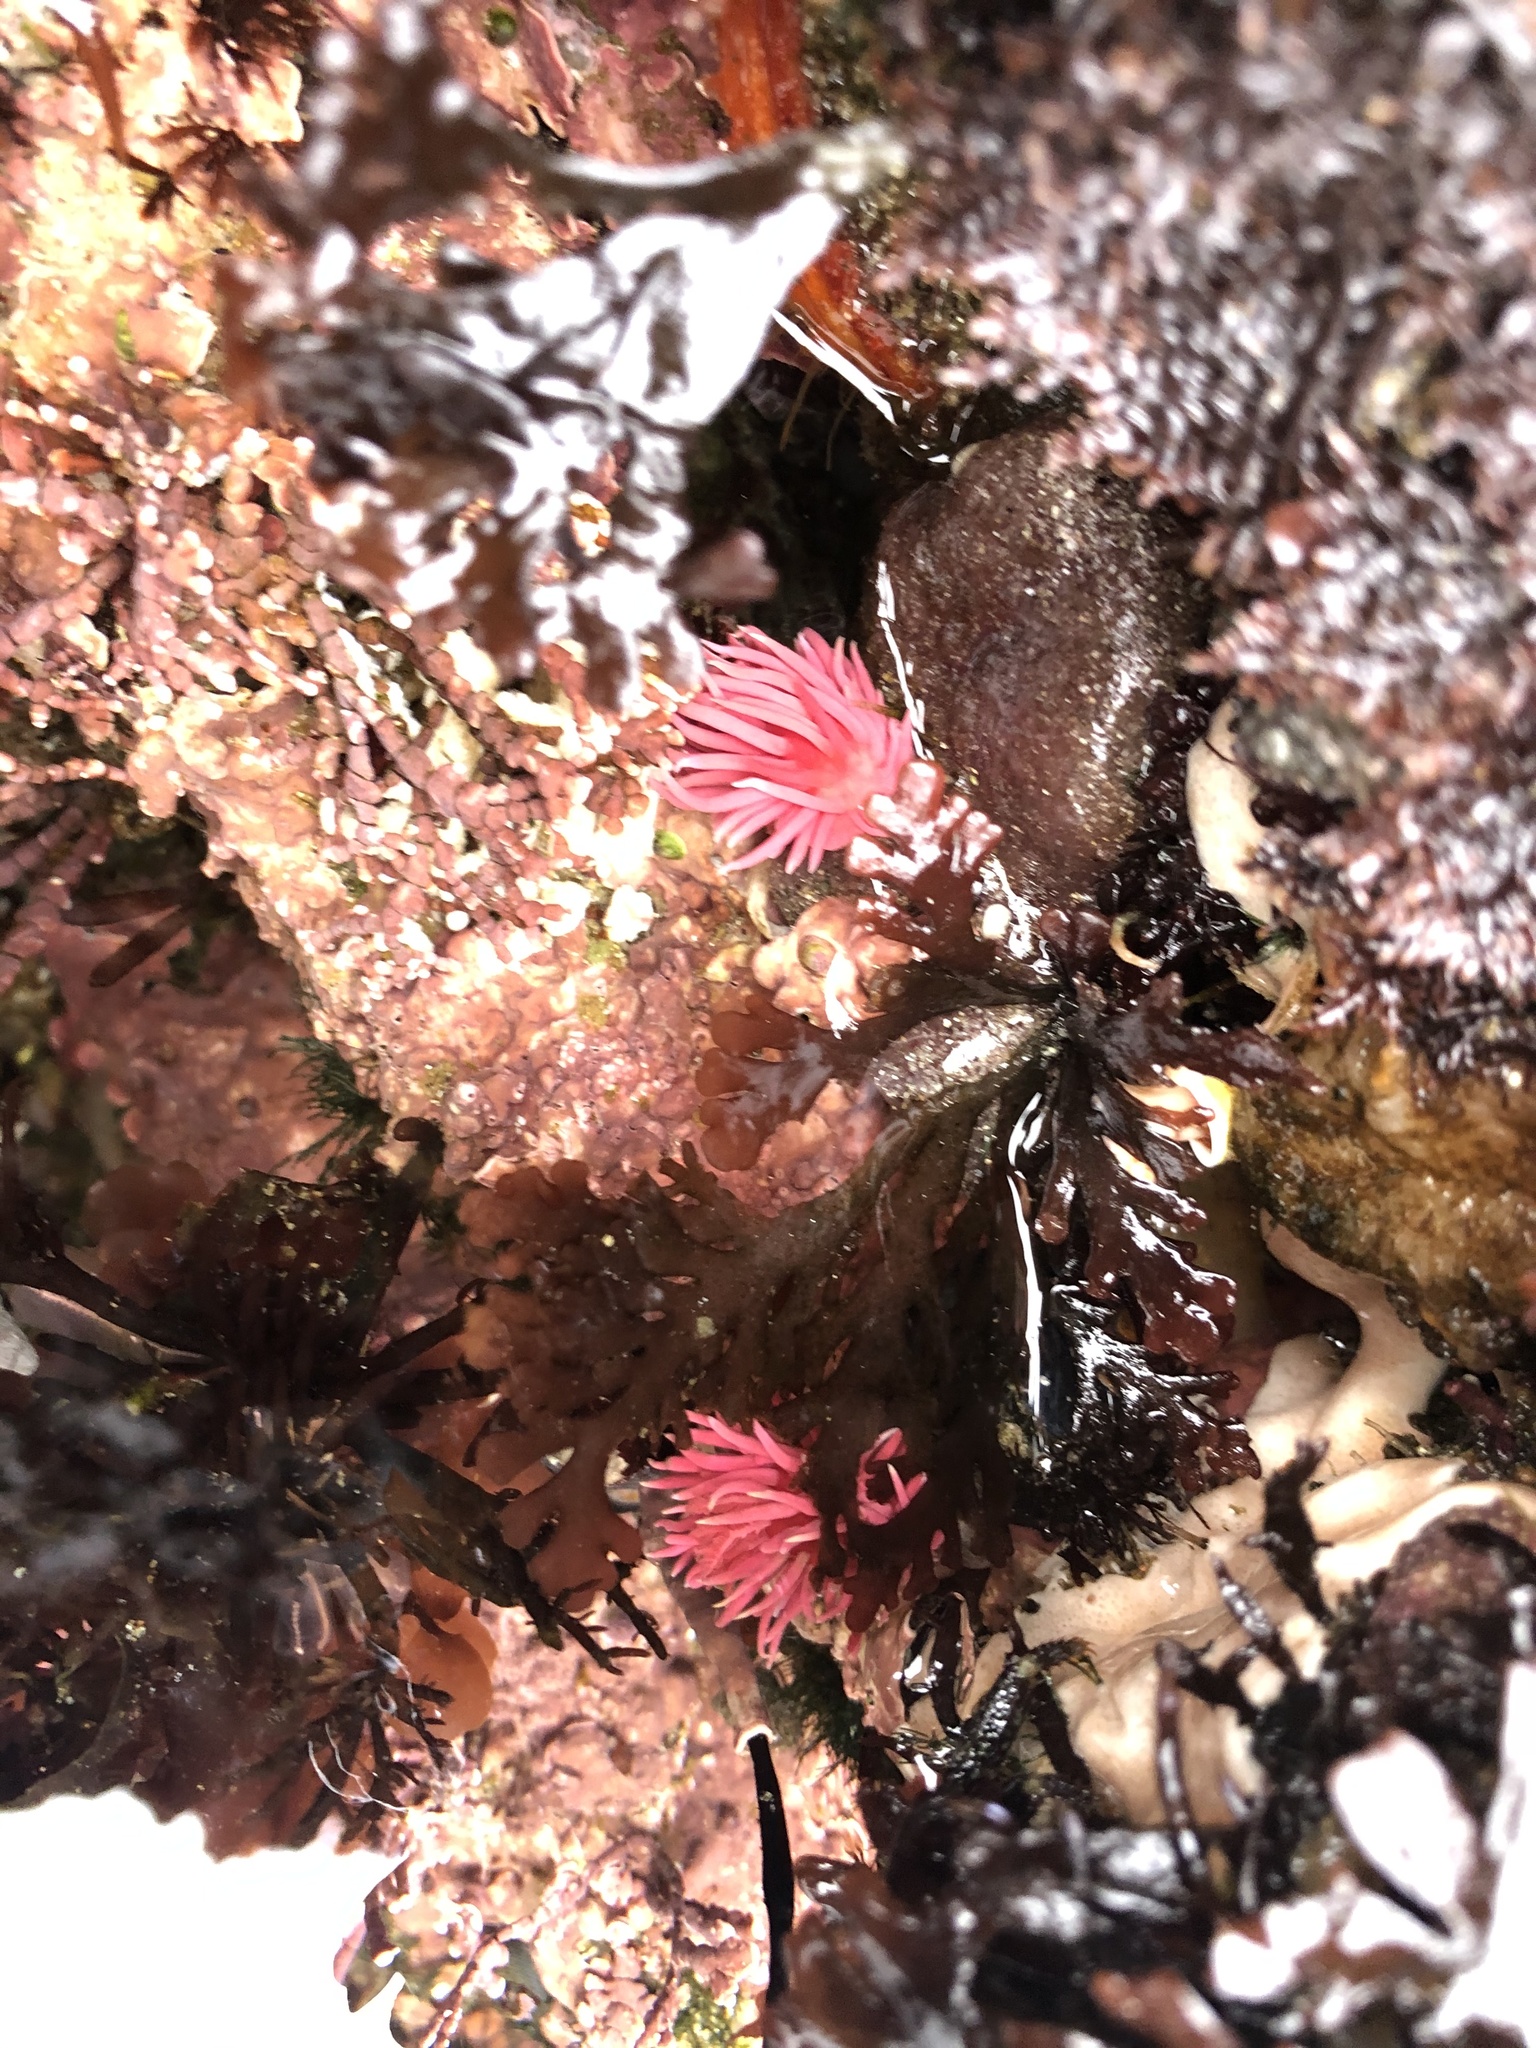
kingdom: Animalia
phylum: Mollusca
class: Gastropoda
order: Nudibranchia
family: Goniodorididae
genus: Okenia
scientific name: Okenia
